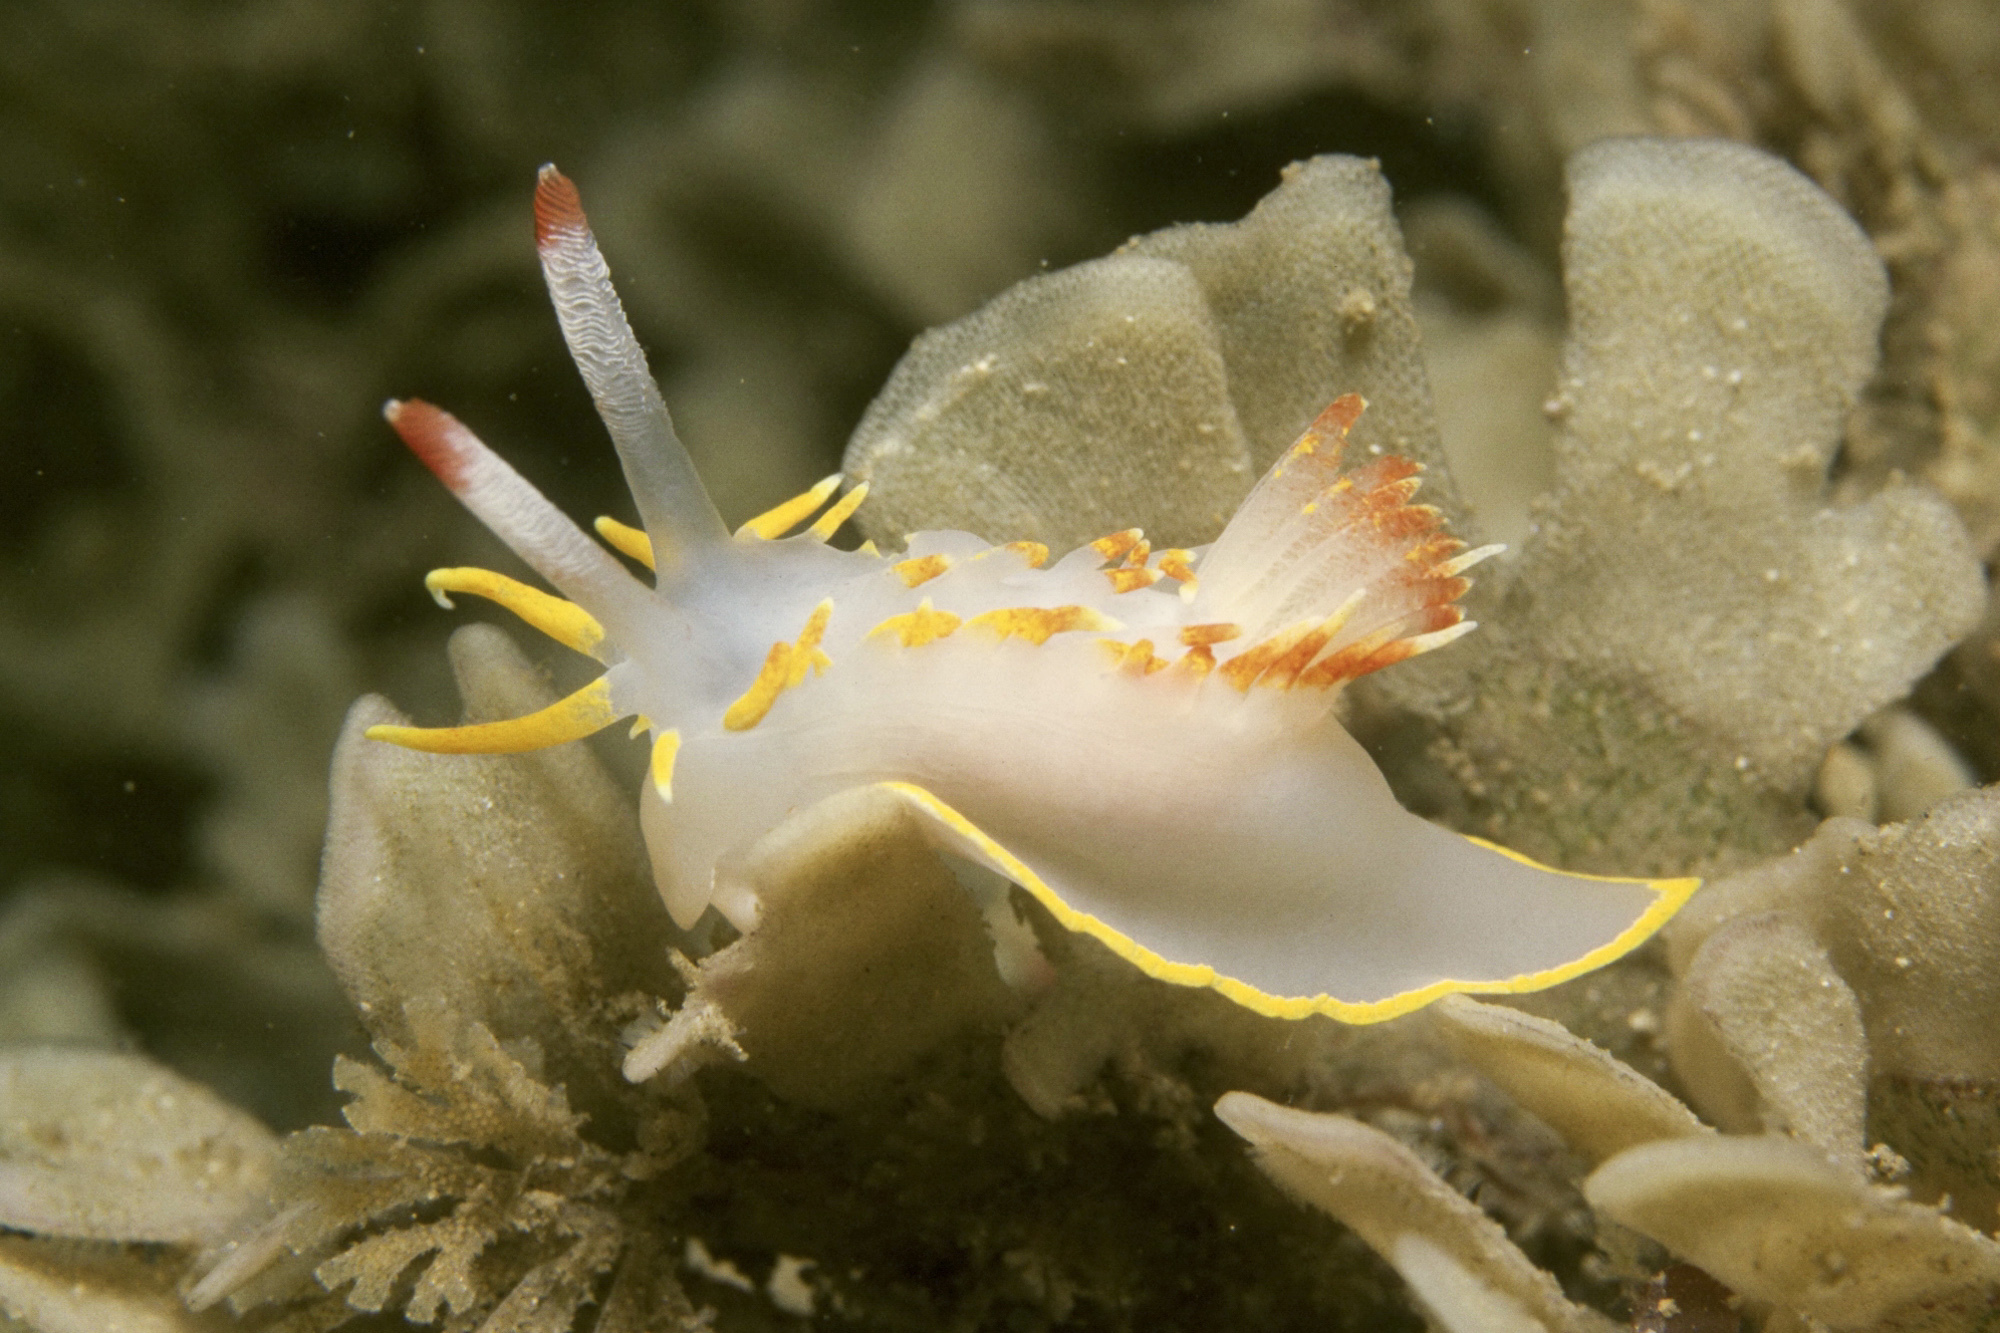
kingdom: Animalia
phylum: Mollusca
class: Gastropoda
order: Nudibranchia
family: Goniodorididae
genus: Okenia
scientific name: Okenia elegans
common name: Yellow skirt slug
